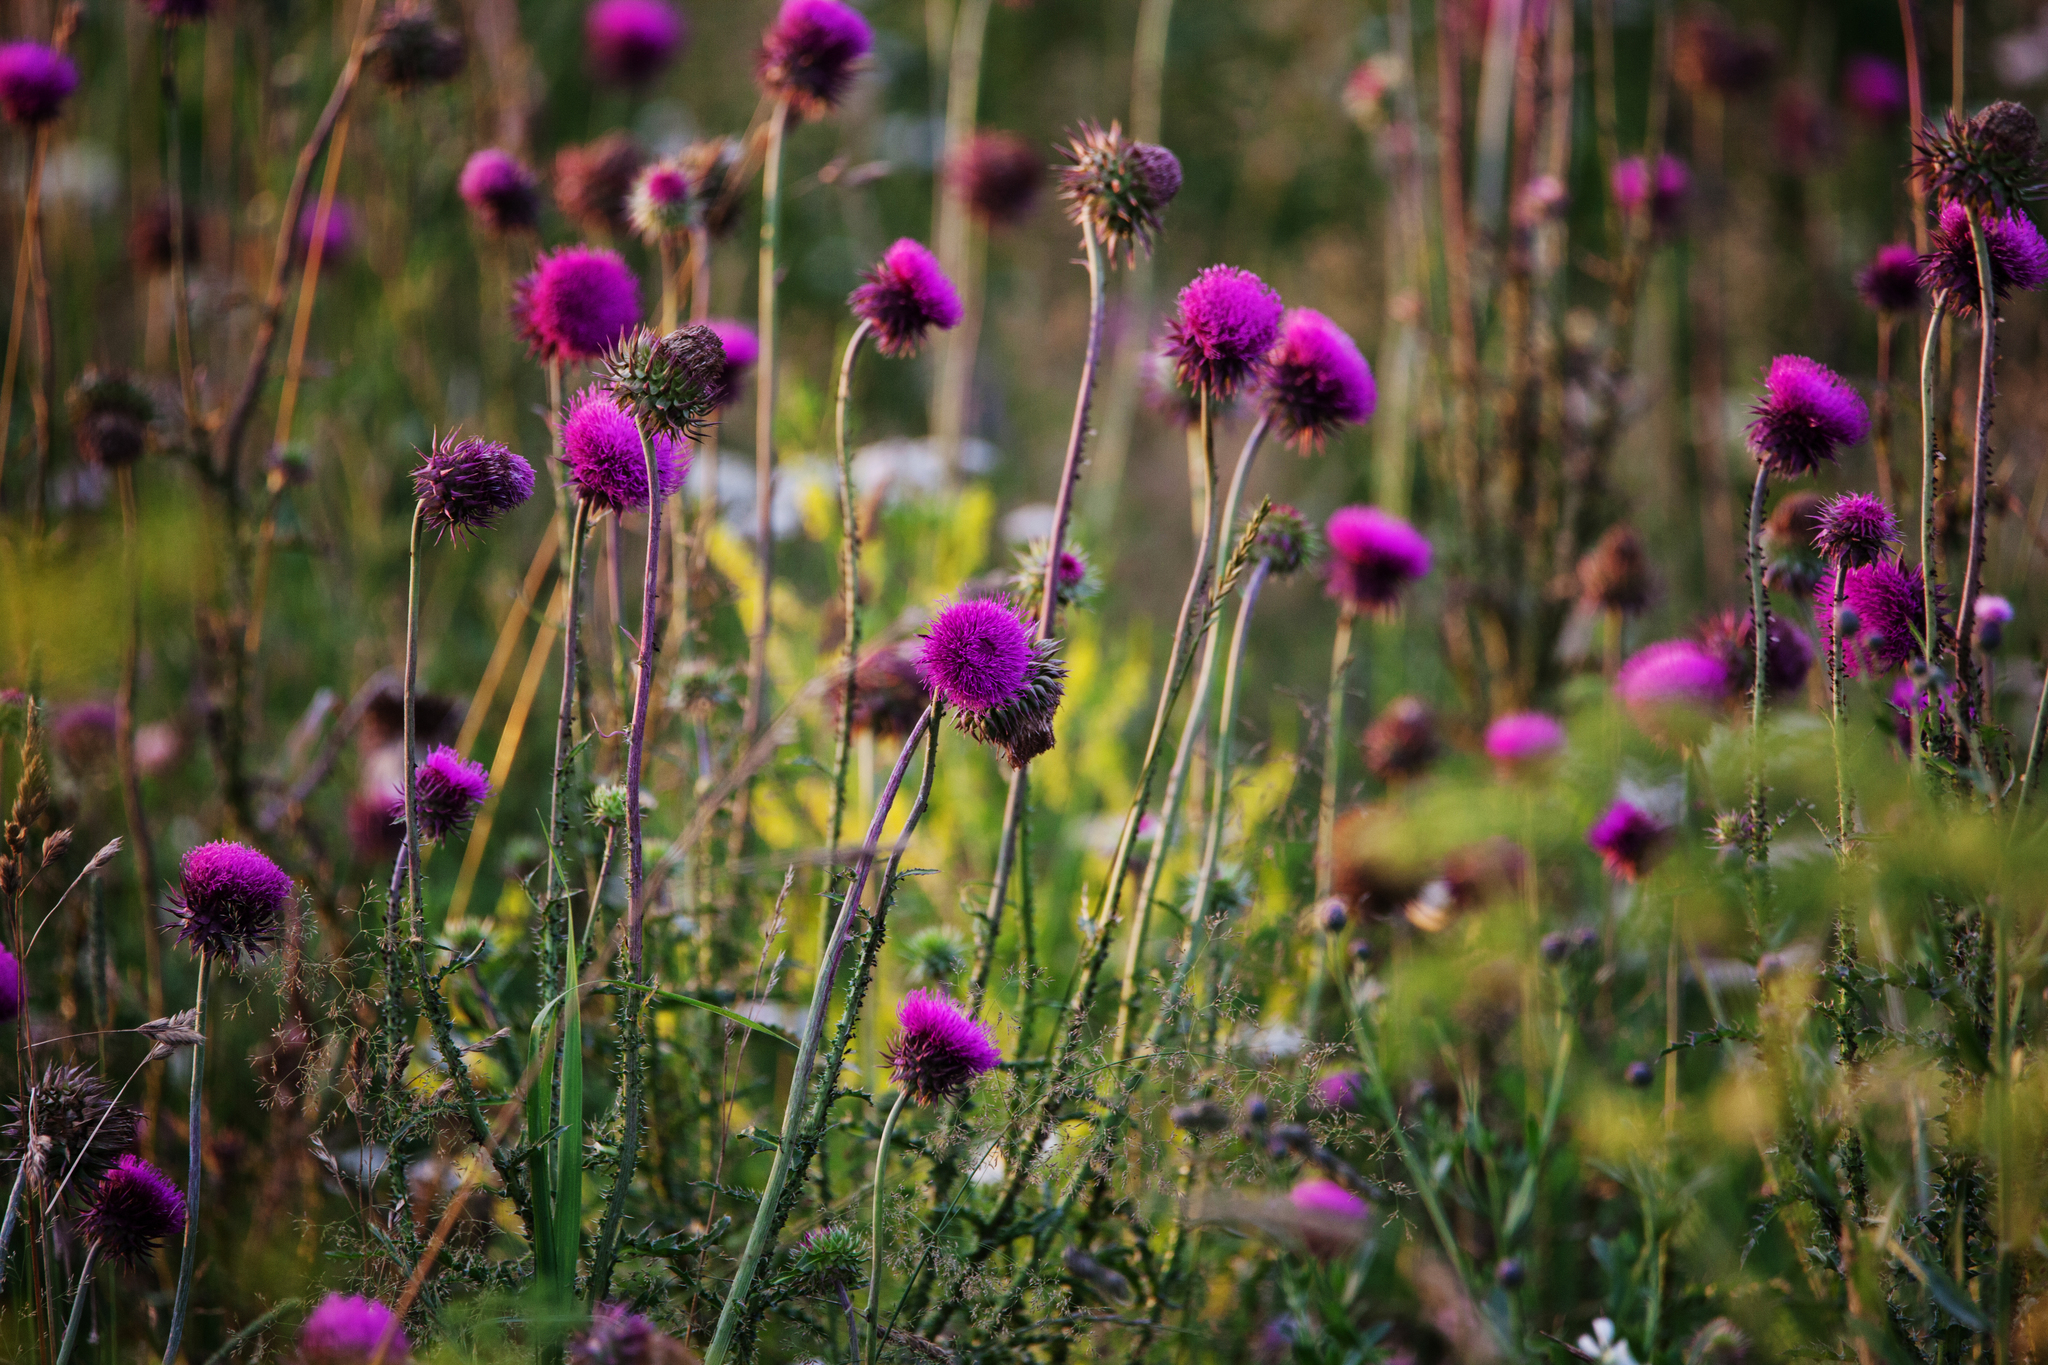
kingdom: Plantae
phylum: Tracheophyta
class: Magnoliopsida
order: Asterales
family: Asteraceae
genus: Carduus
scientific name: Carduus nutans
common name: Musk thistle
